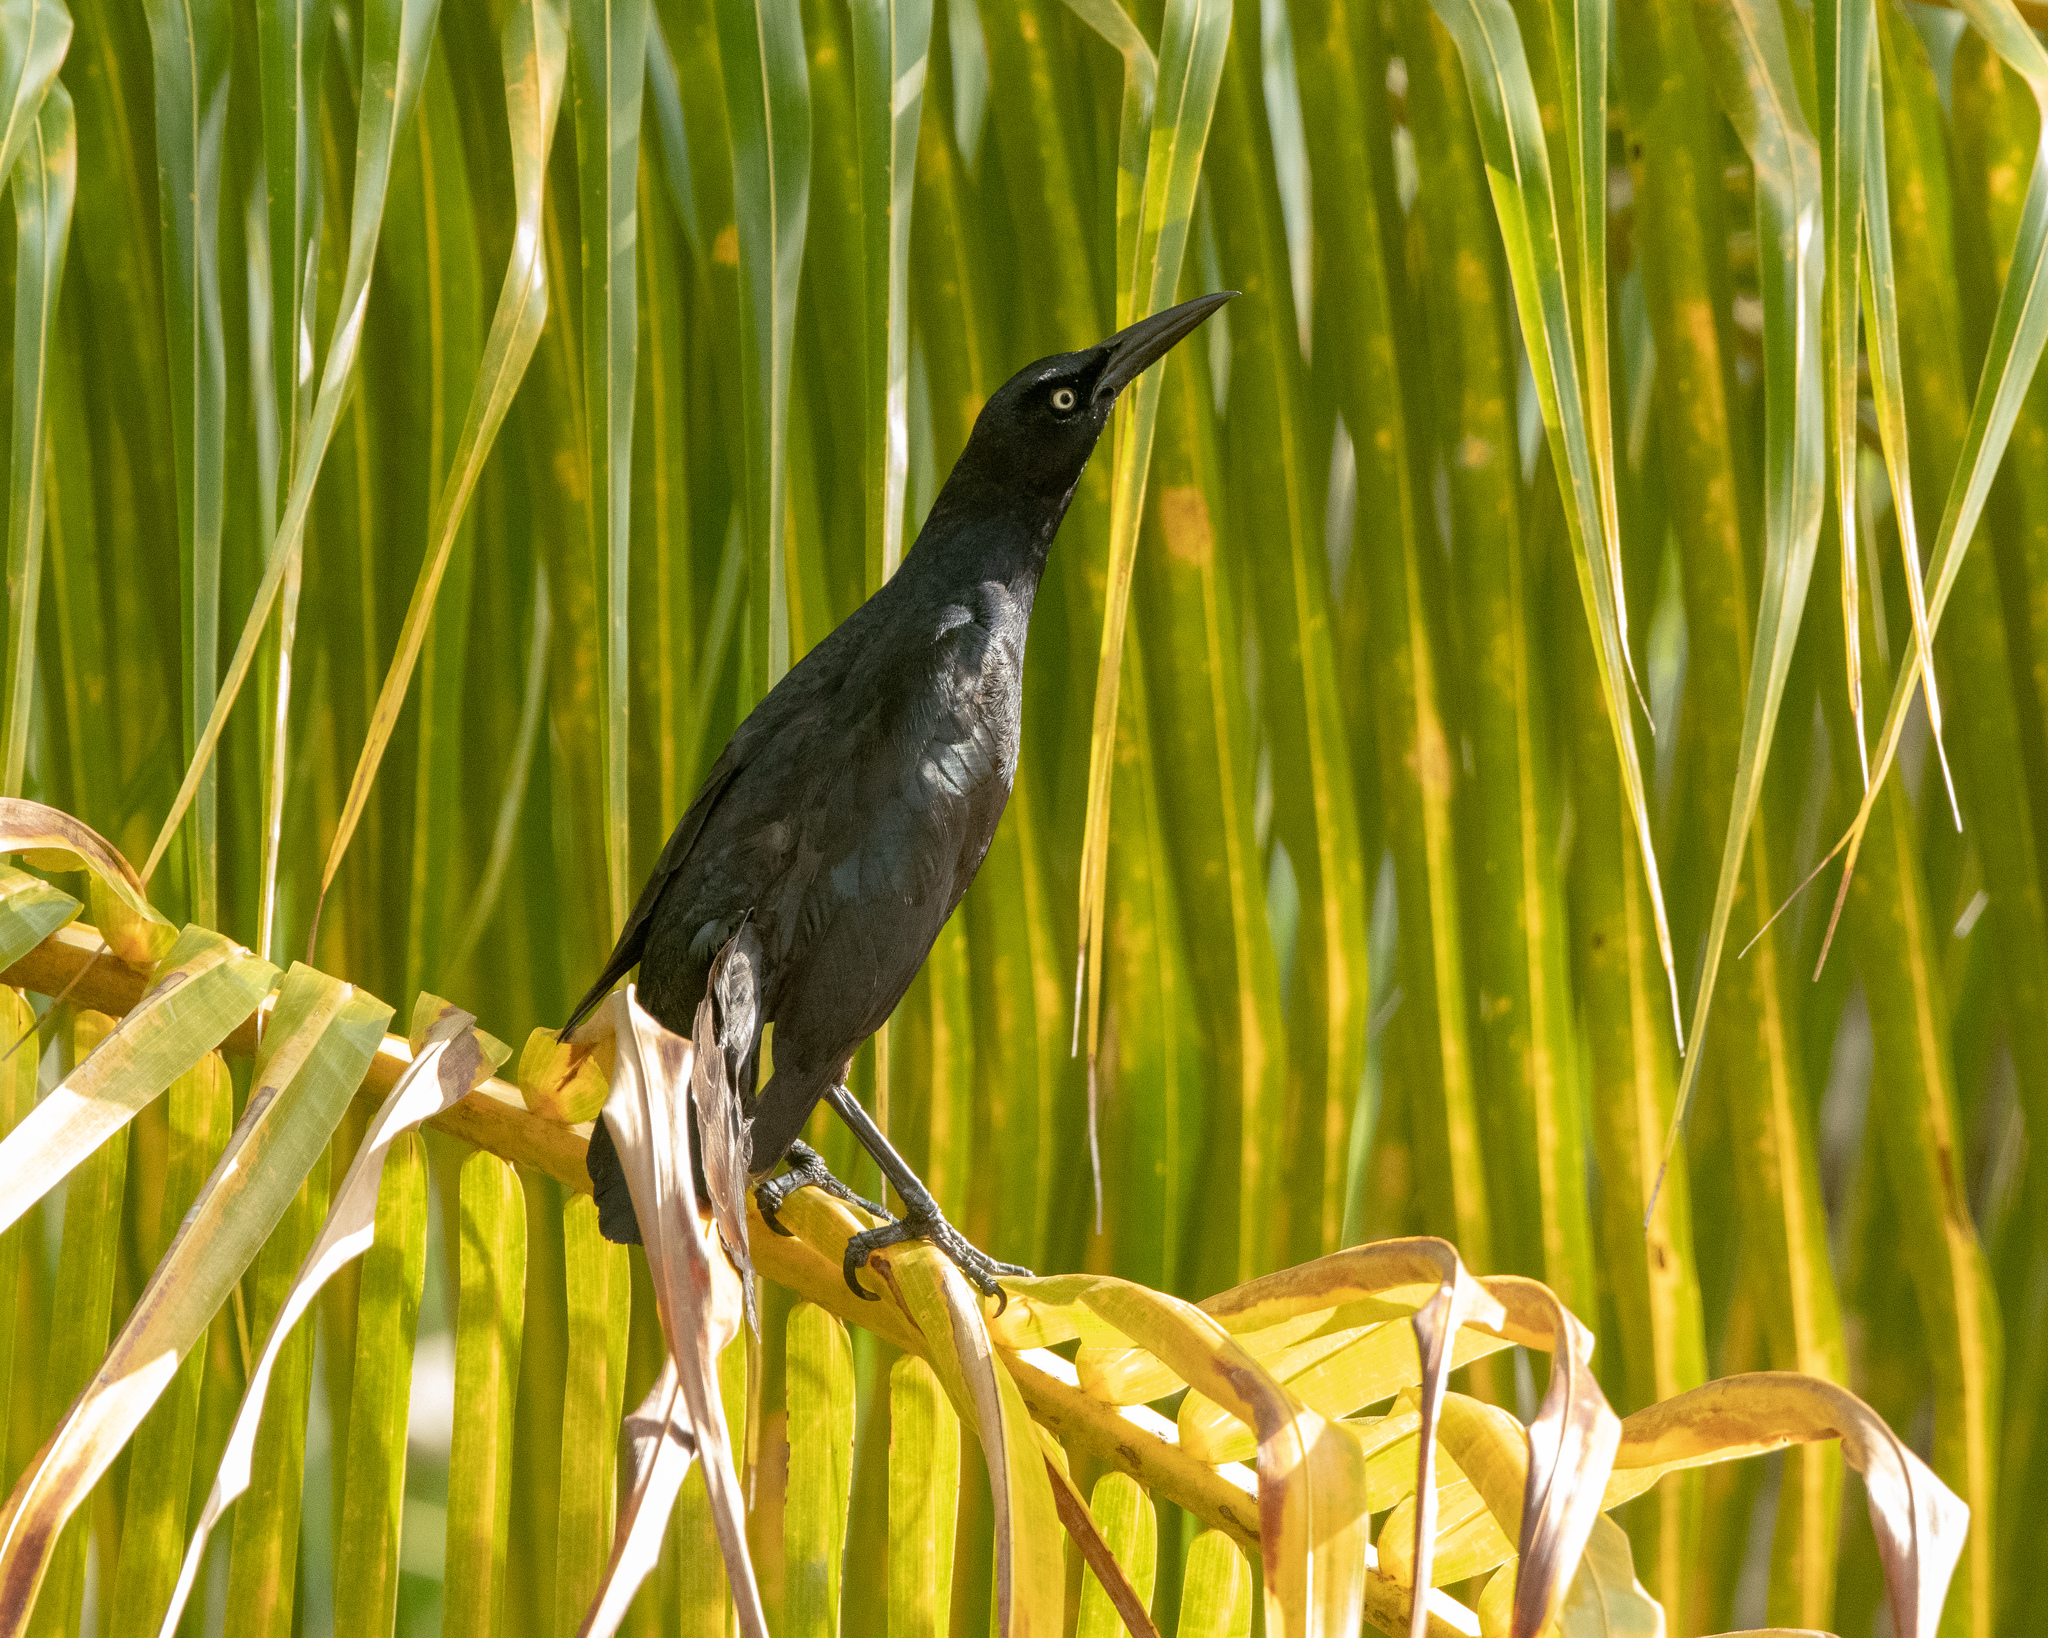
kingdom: Animalia
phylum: Chordata
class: Aves
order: Passeriformes
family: Icteridae
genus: Quiscalus
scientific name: Quiscalus mexicanus
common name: Great-tailed grackle
